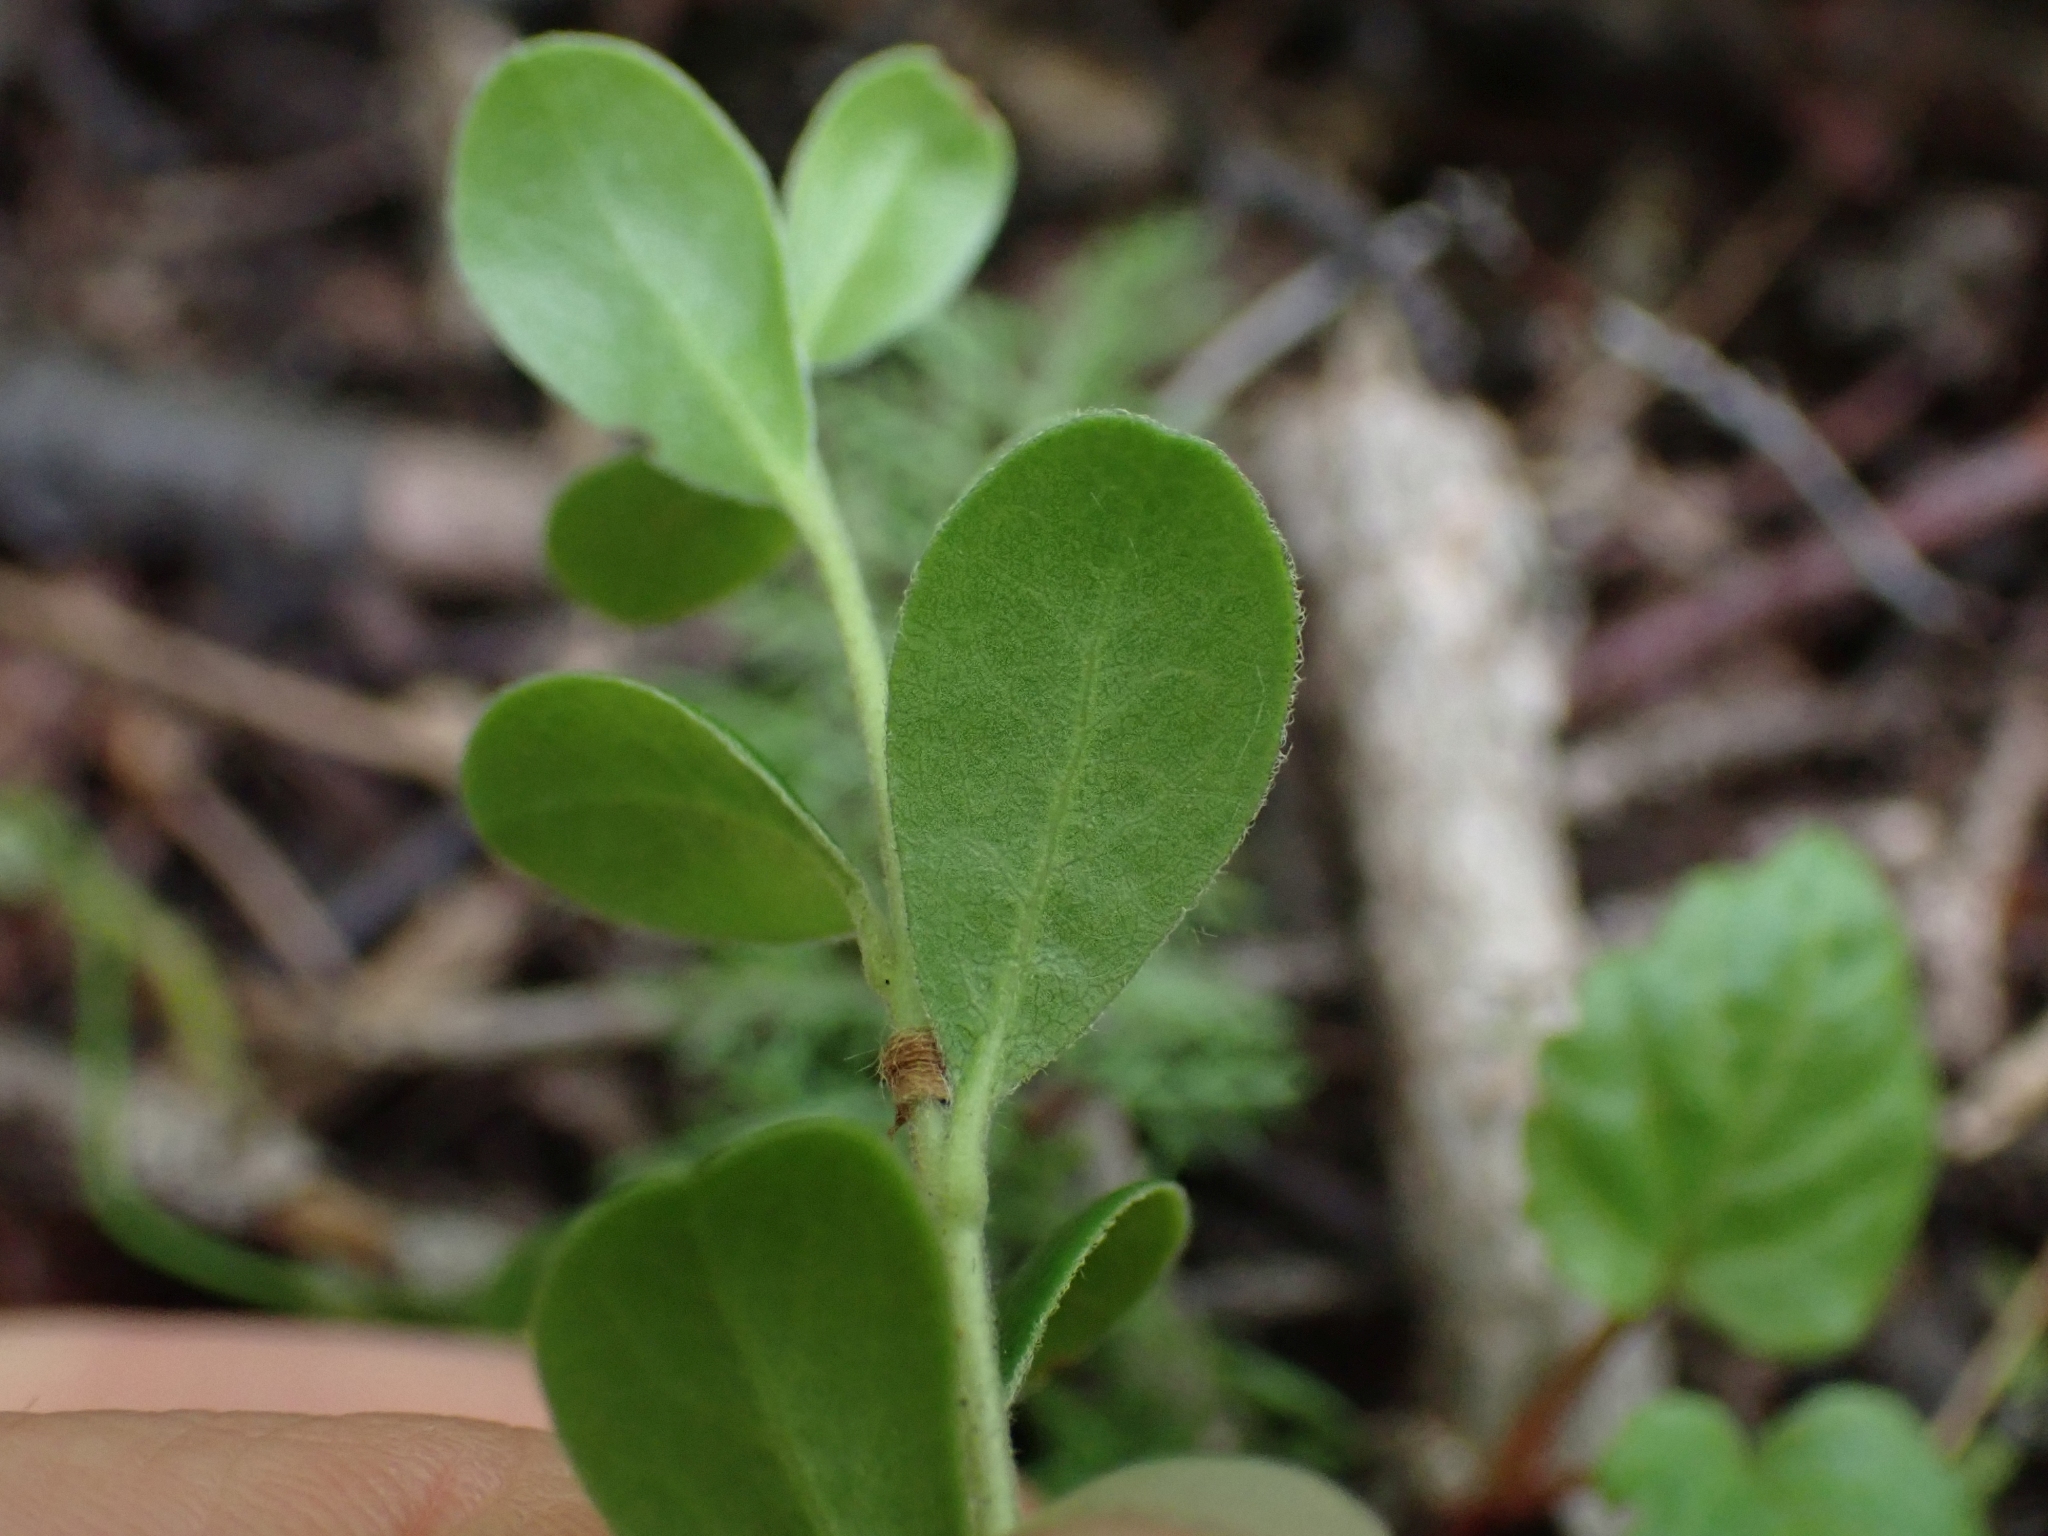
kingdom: Plantae
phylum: Tracheophyta
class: Magnoliopsida
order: Ericales
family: Ericaceae
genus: Arctostaphylos
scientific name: Arctostaphylos uva-ursi
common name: Bearberry
